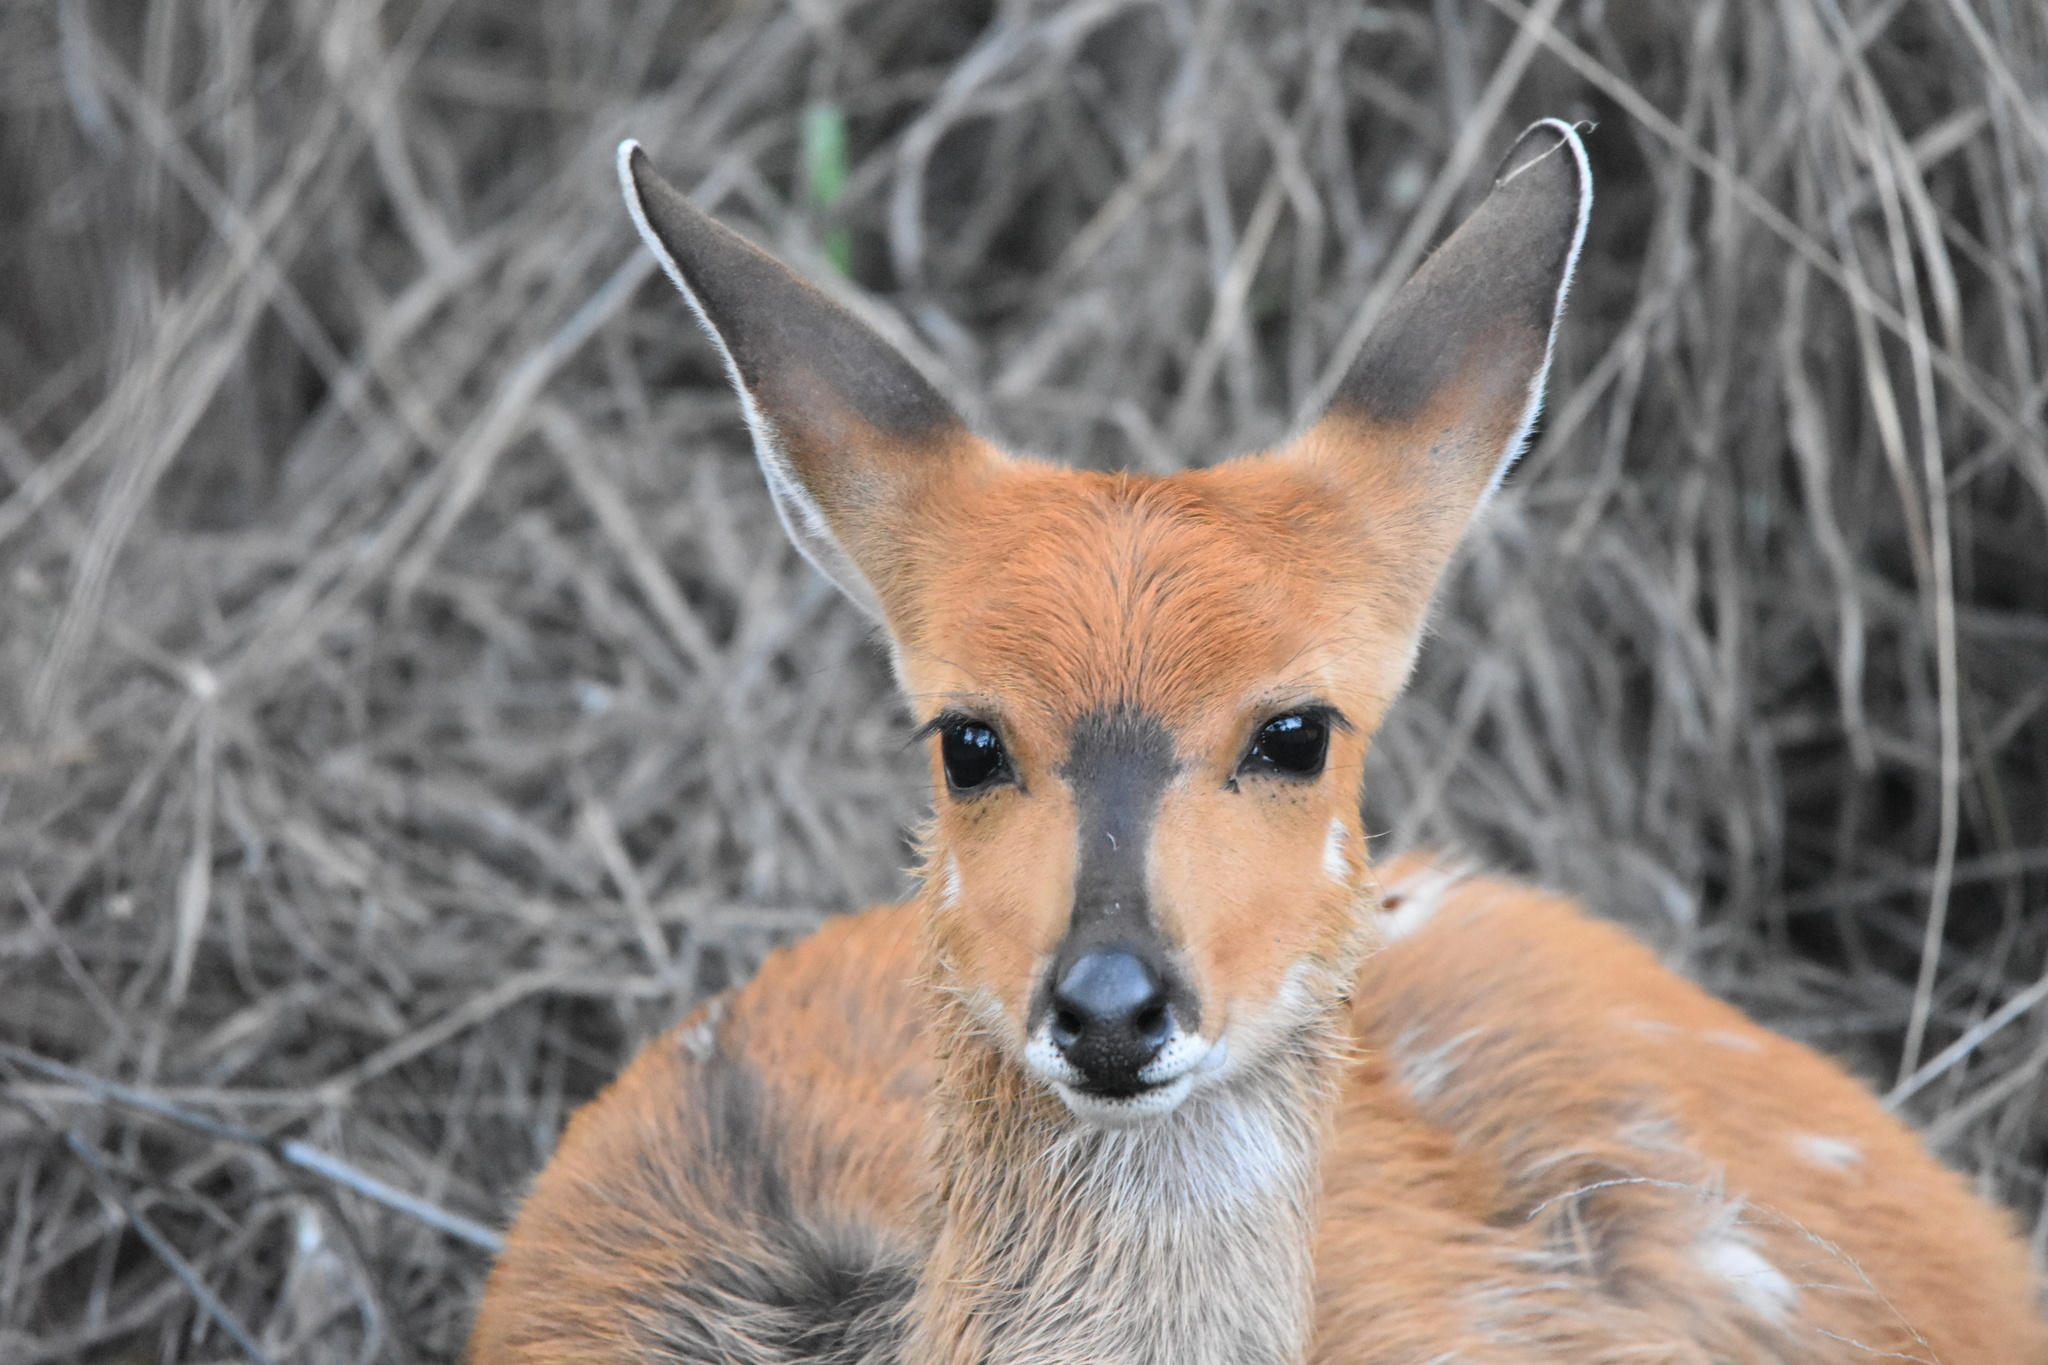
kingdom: Animalia
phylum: Chordata
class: Mammalia
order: Artiodactyla
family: Bovidae
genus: Tragelaphus
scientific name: Tragelaphus scriptus
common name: Bushbuck
